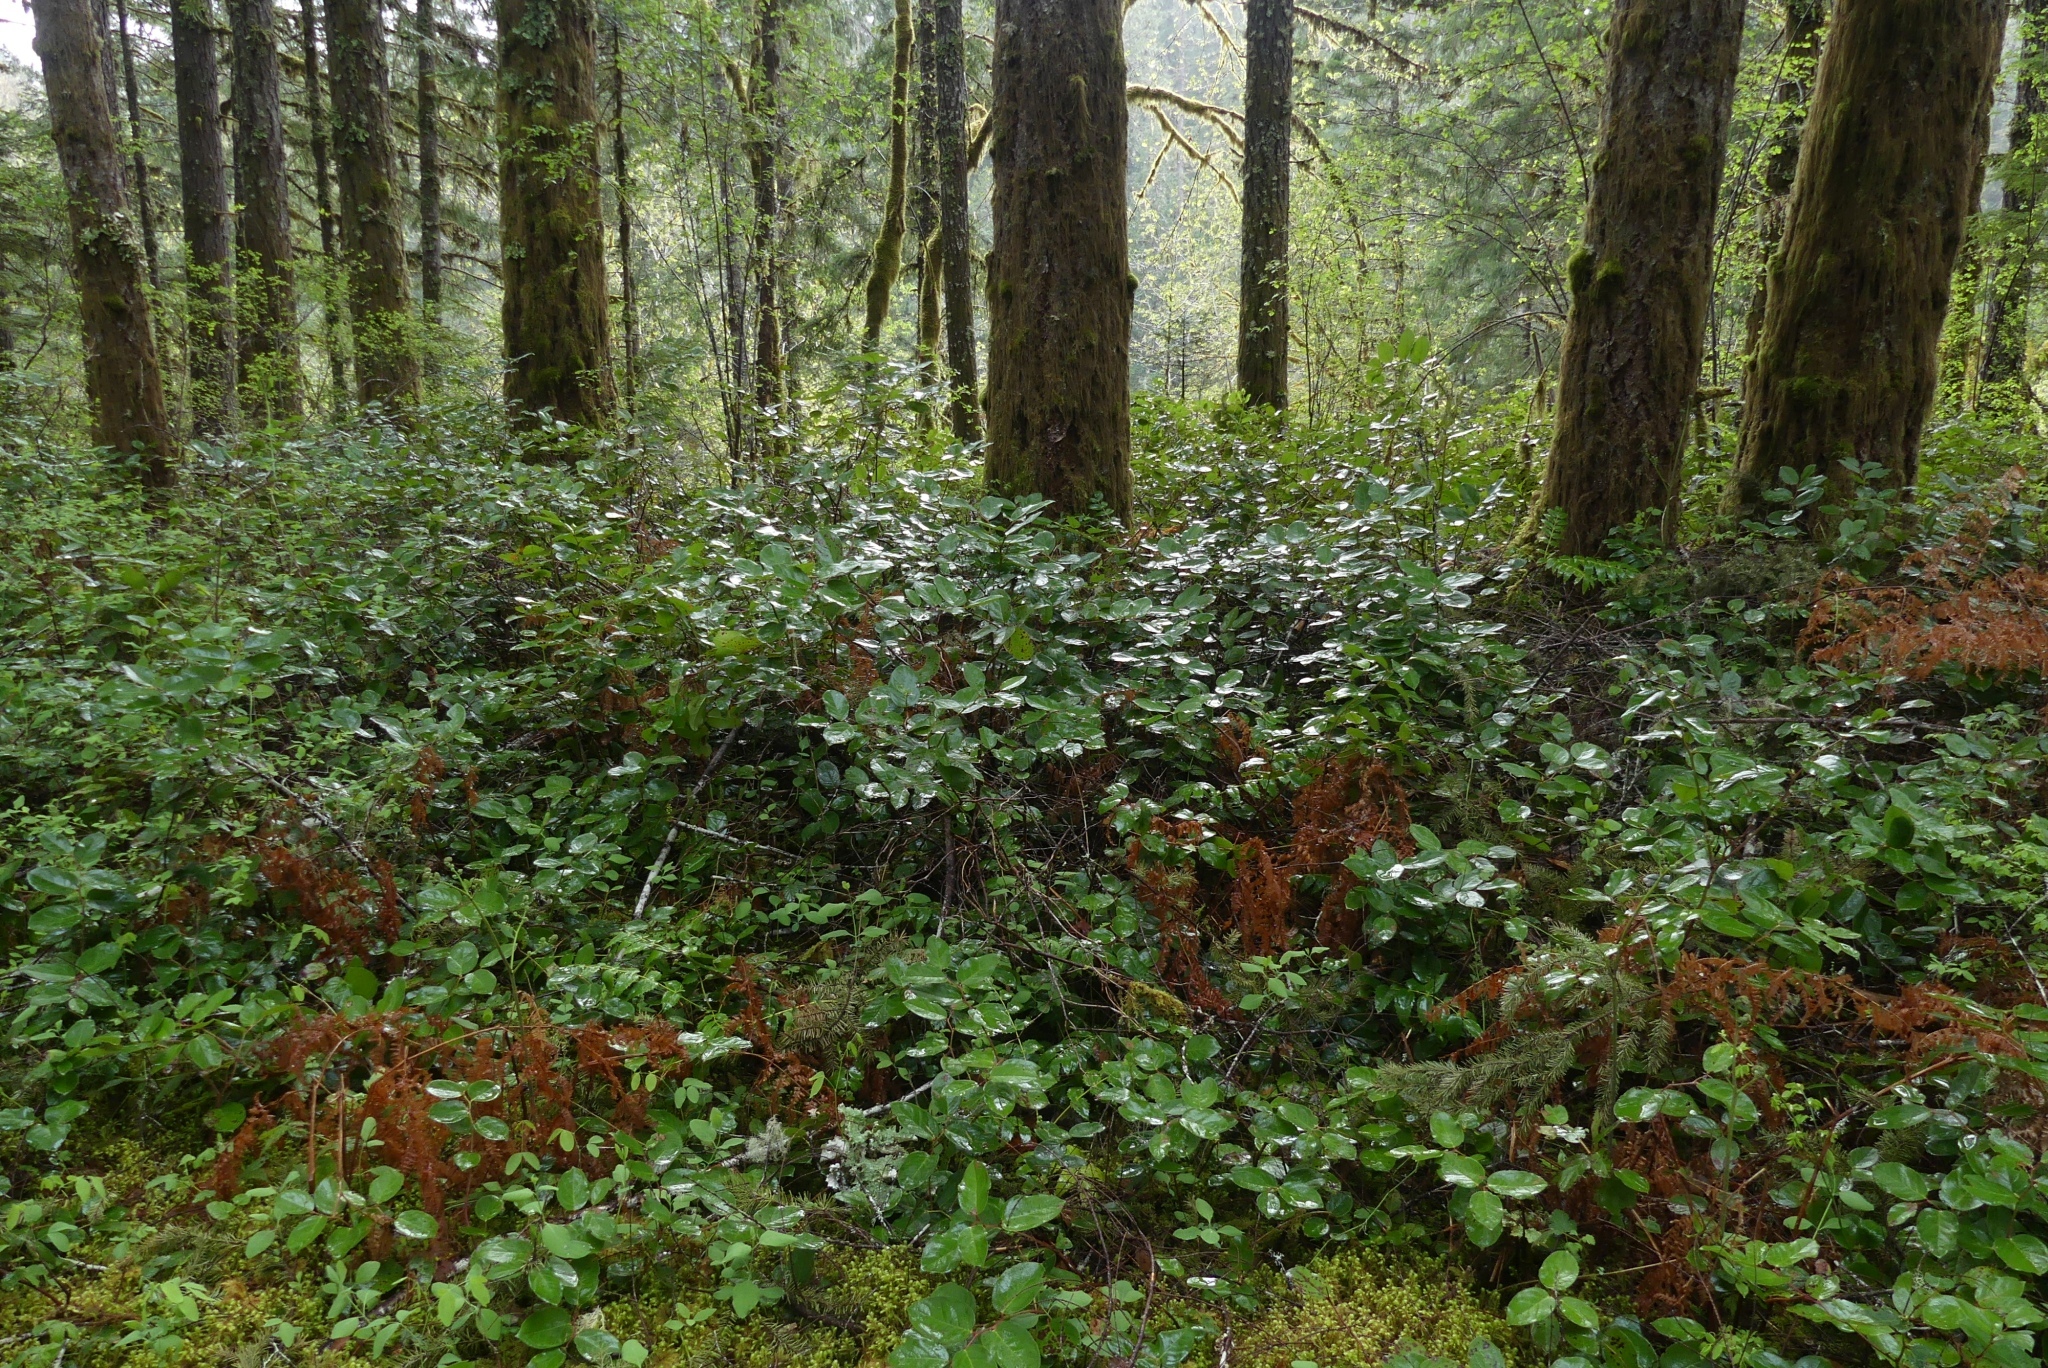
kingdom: Plantae
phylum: Tracheophyta
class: Magnoliopsida
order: Ericales
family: Ericaceae
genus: Gaultheria
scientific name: Gaultheria shallon
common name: Shallon
